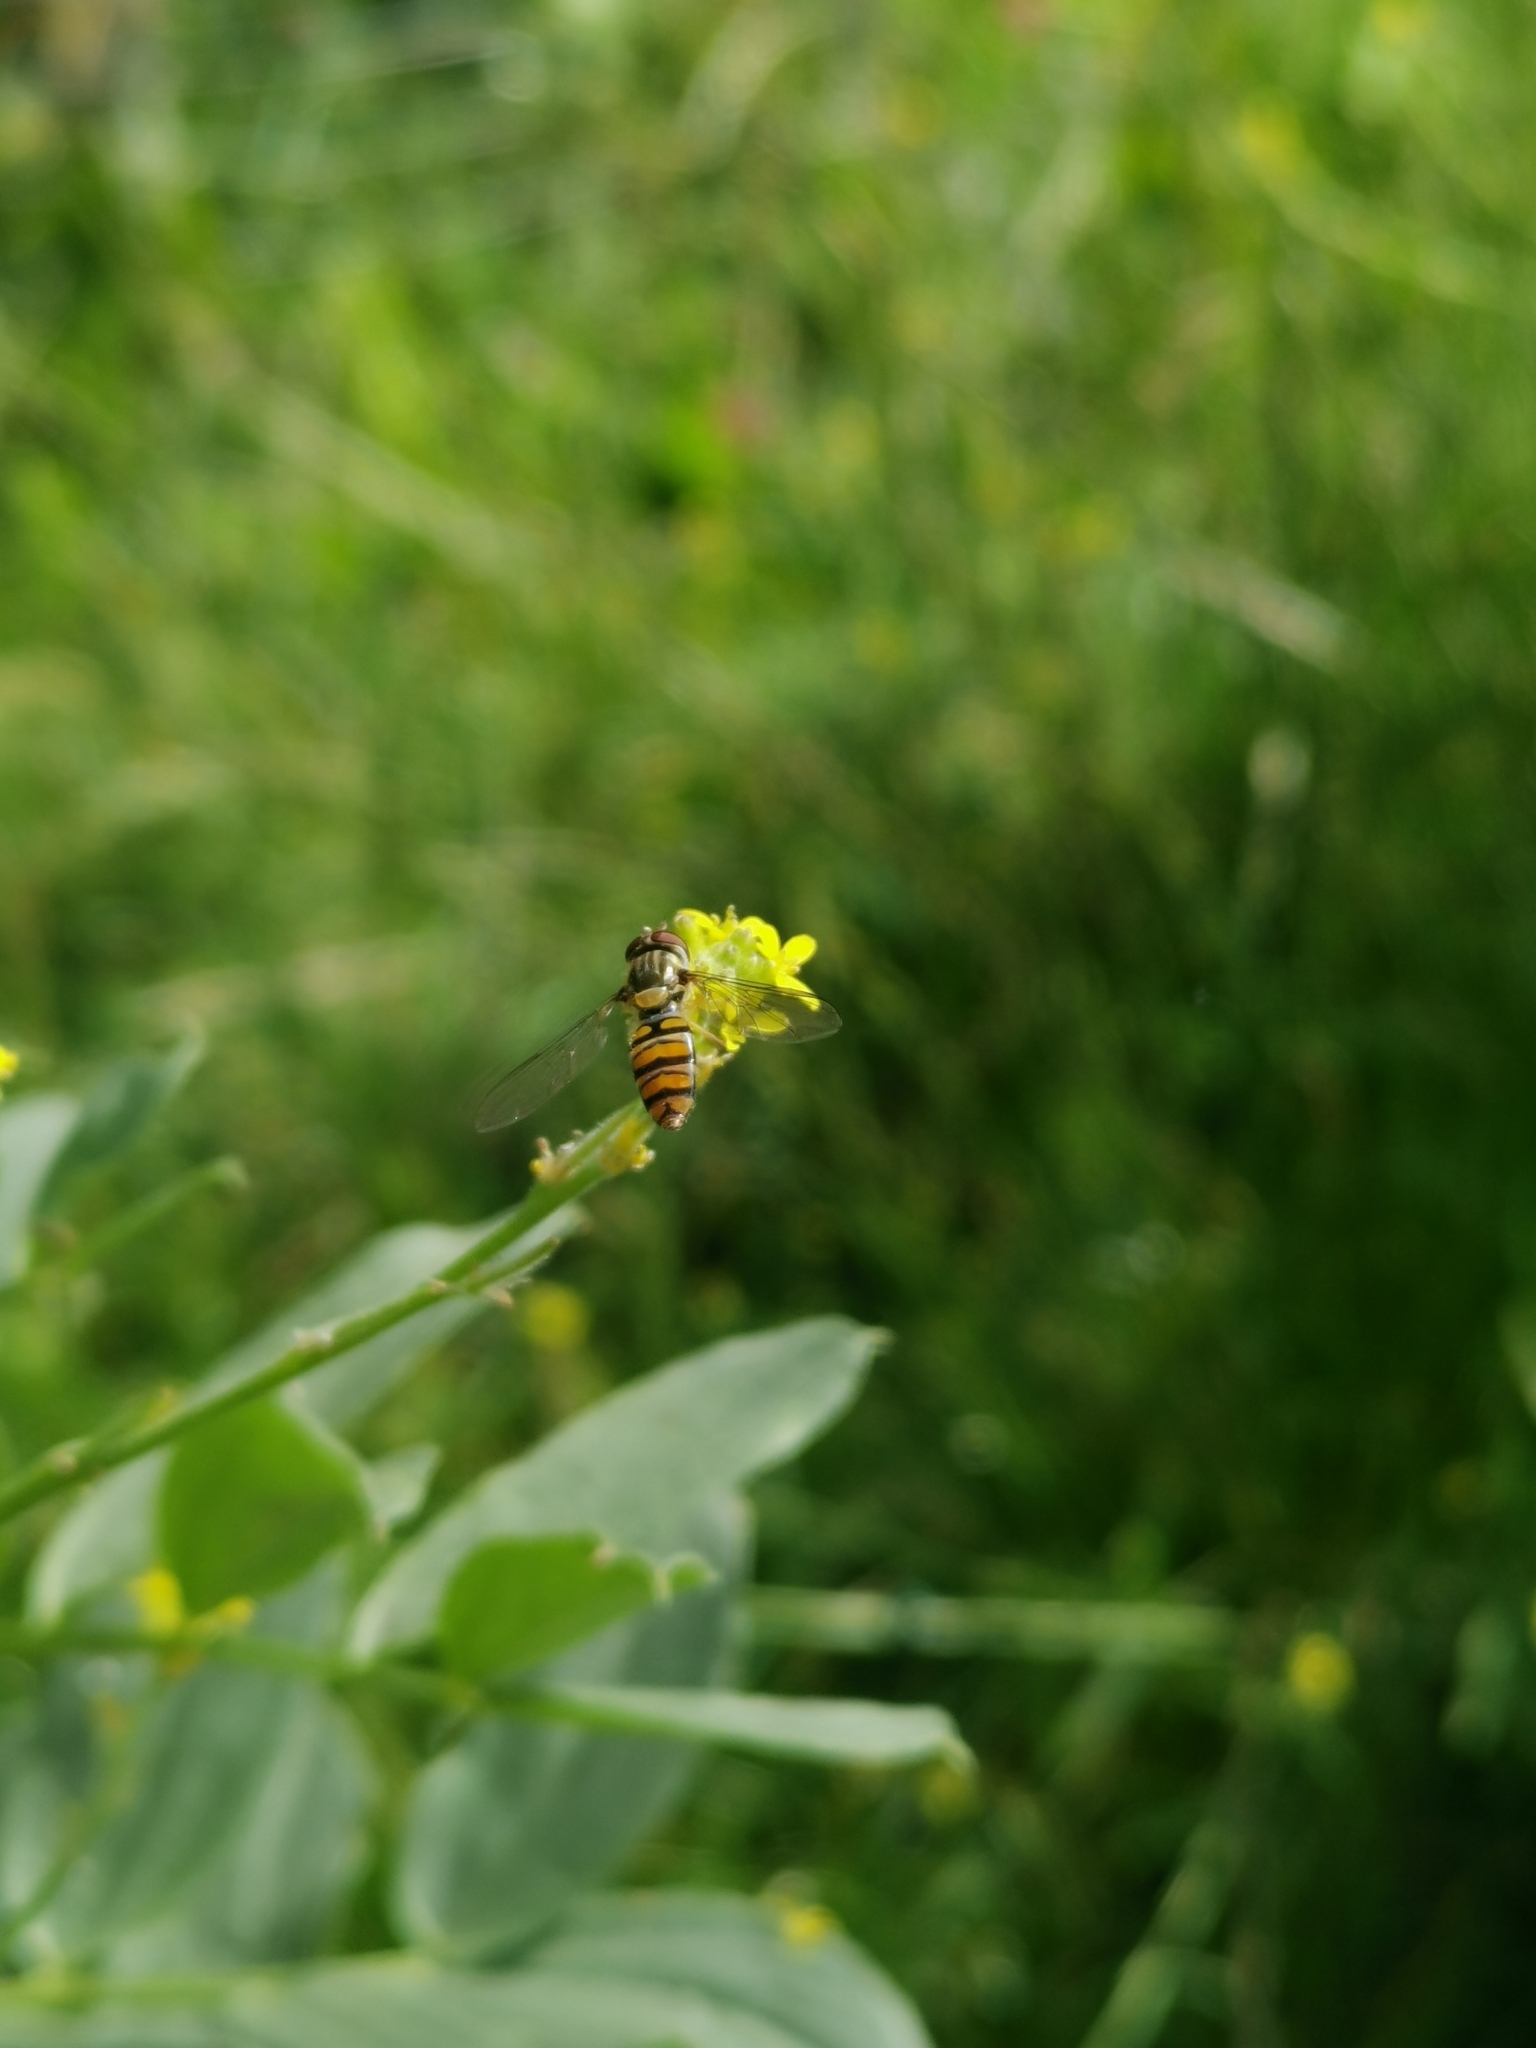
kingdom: Animalia
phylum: Arthropoda
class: Insecta
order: Diptera
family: Syrphidae
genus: Episyrphus
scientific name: Episyrphus balteatus
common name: Marmalade hoverfly
